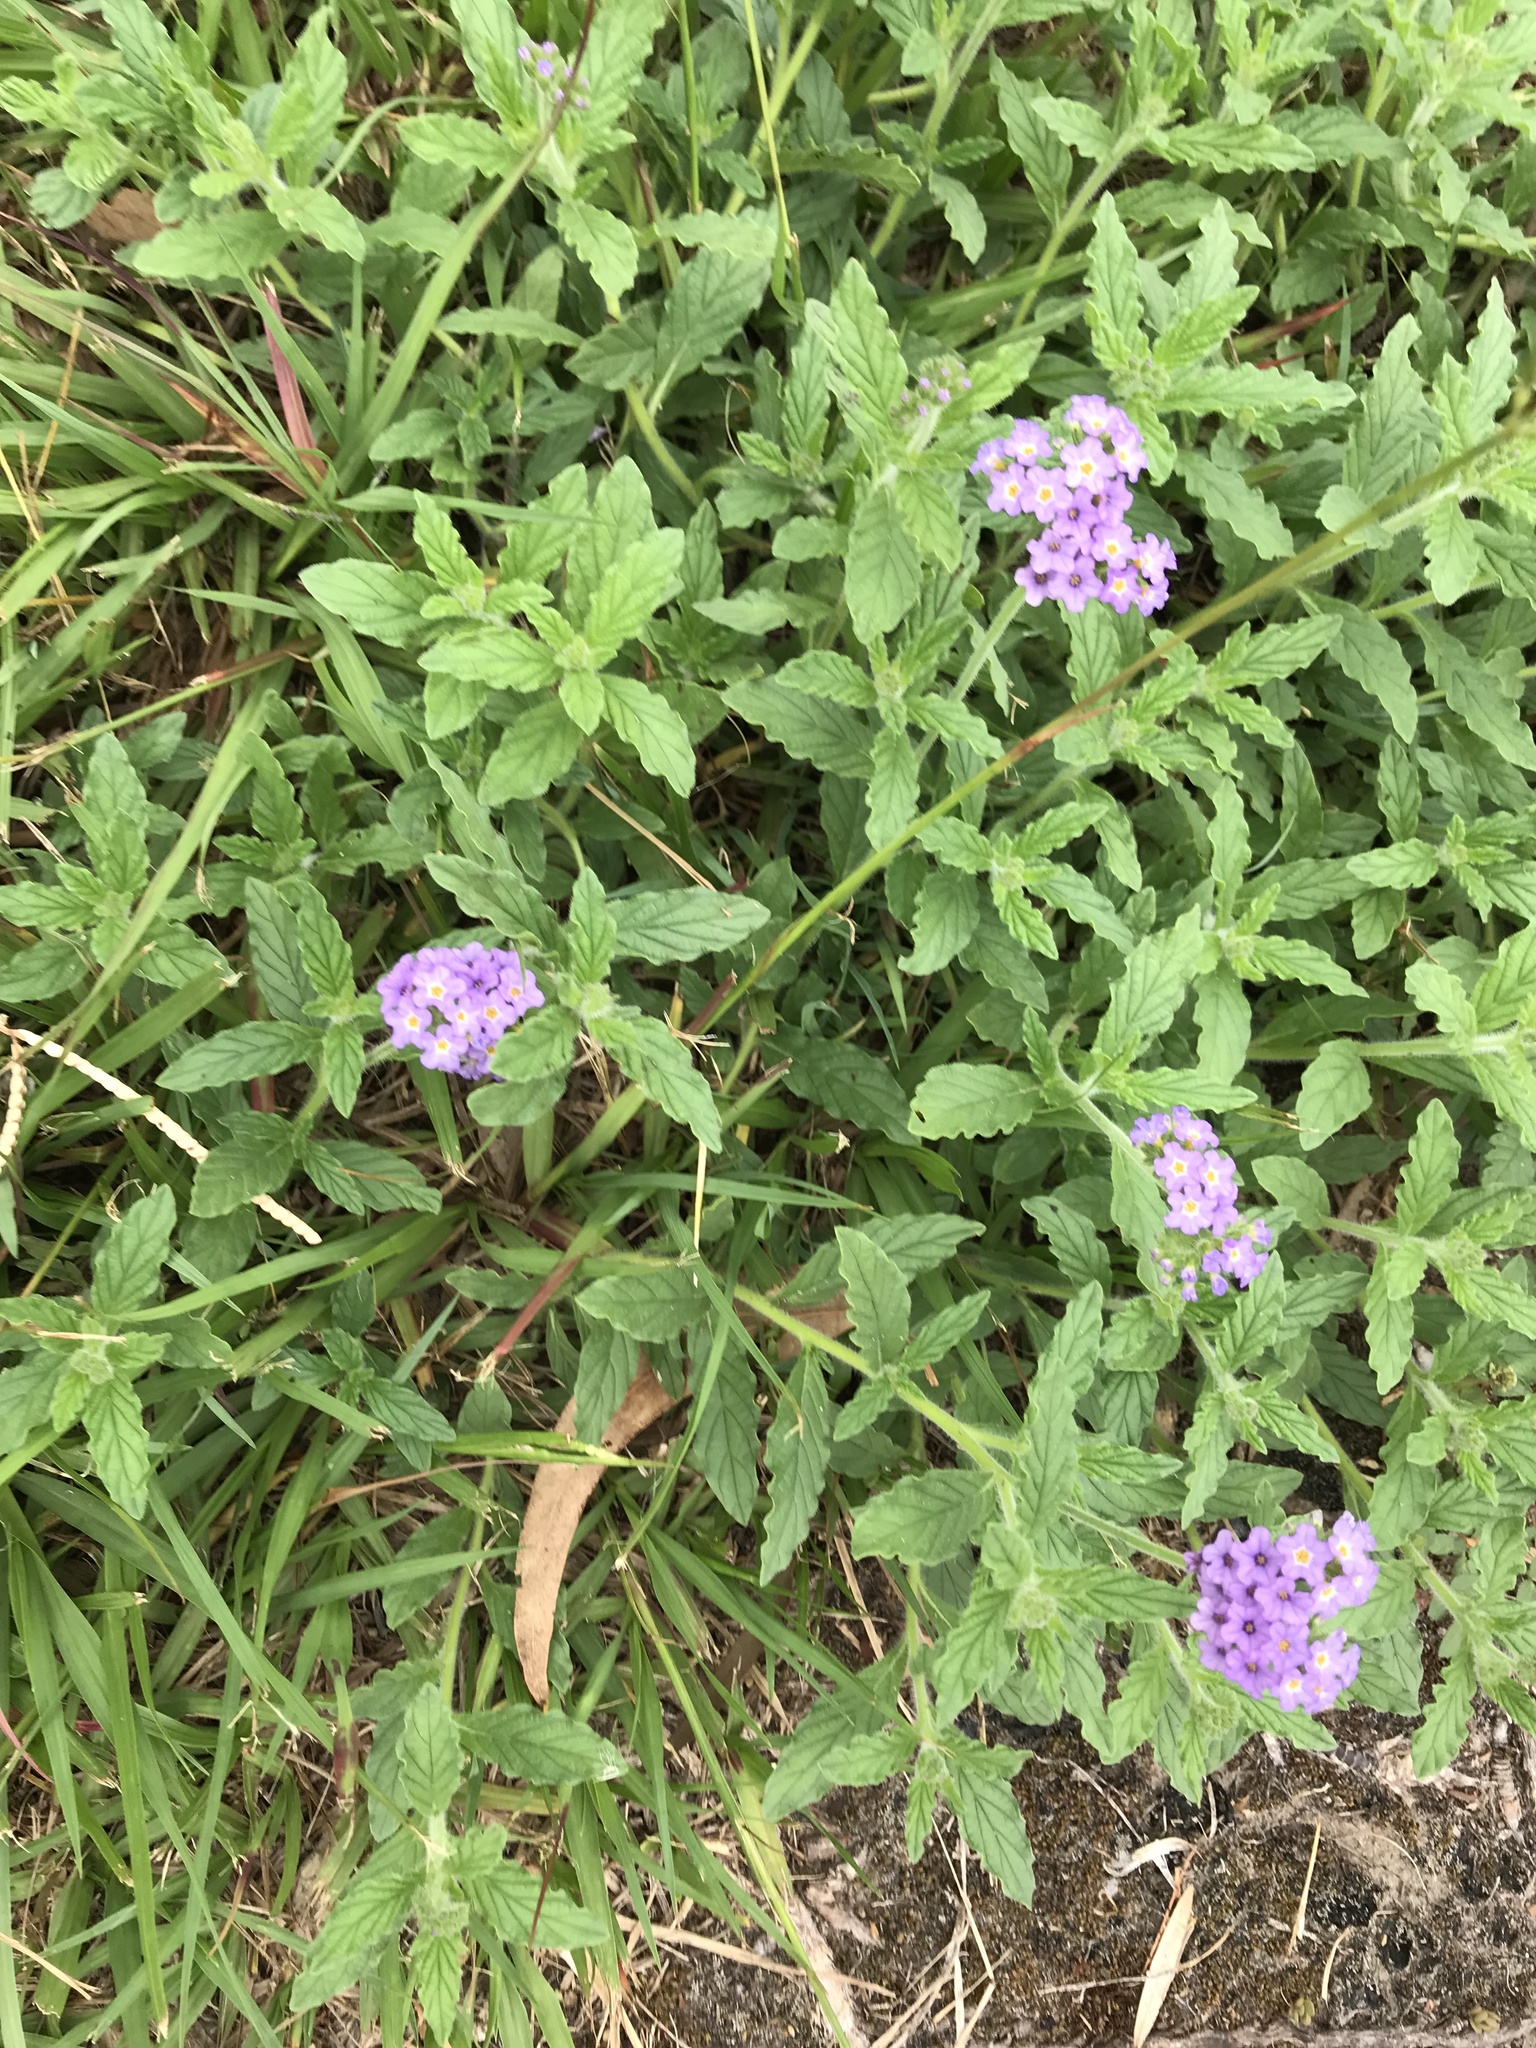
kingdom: Plantae
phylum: Tracheophyta
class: Magnoliopsida
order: Boraginales
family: Heliotropiaceae
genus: Heliotropium
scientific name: Heliotropium amplexicaule
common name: Clasping heliotrope
